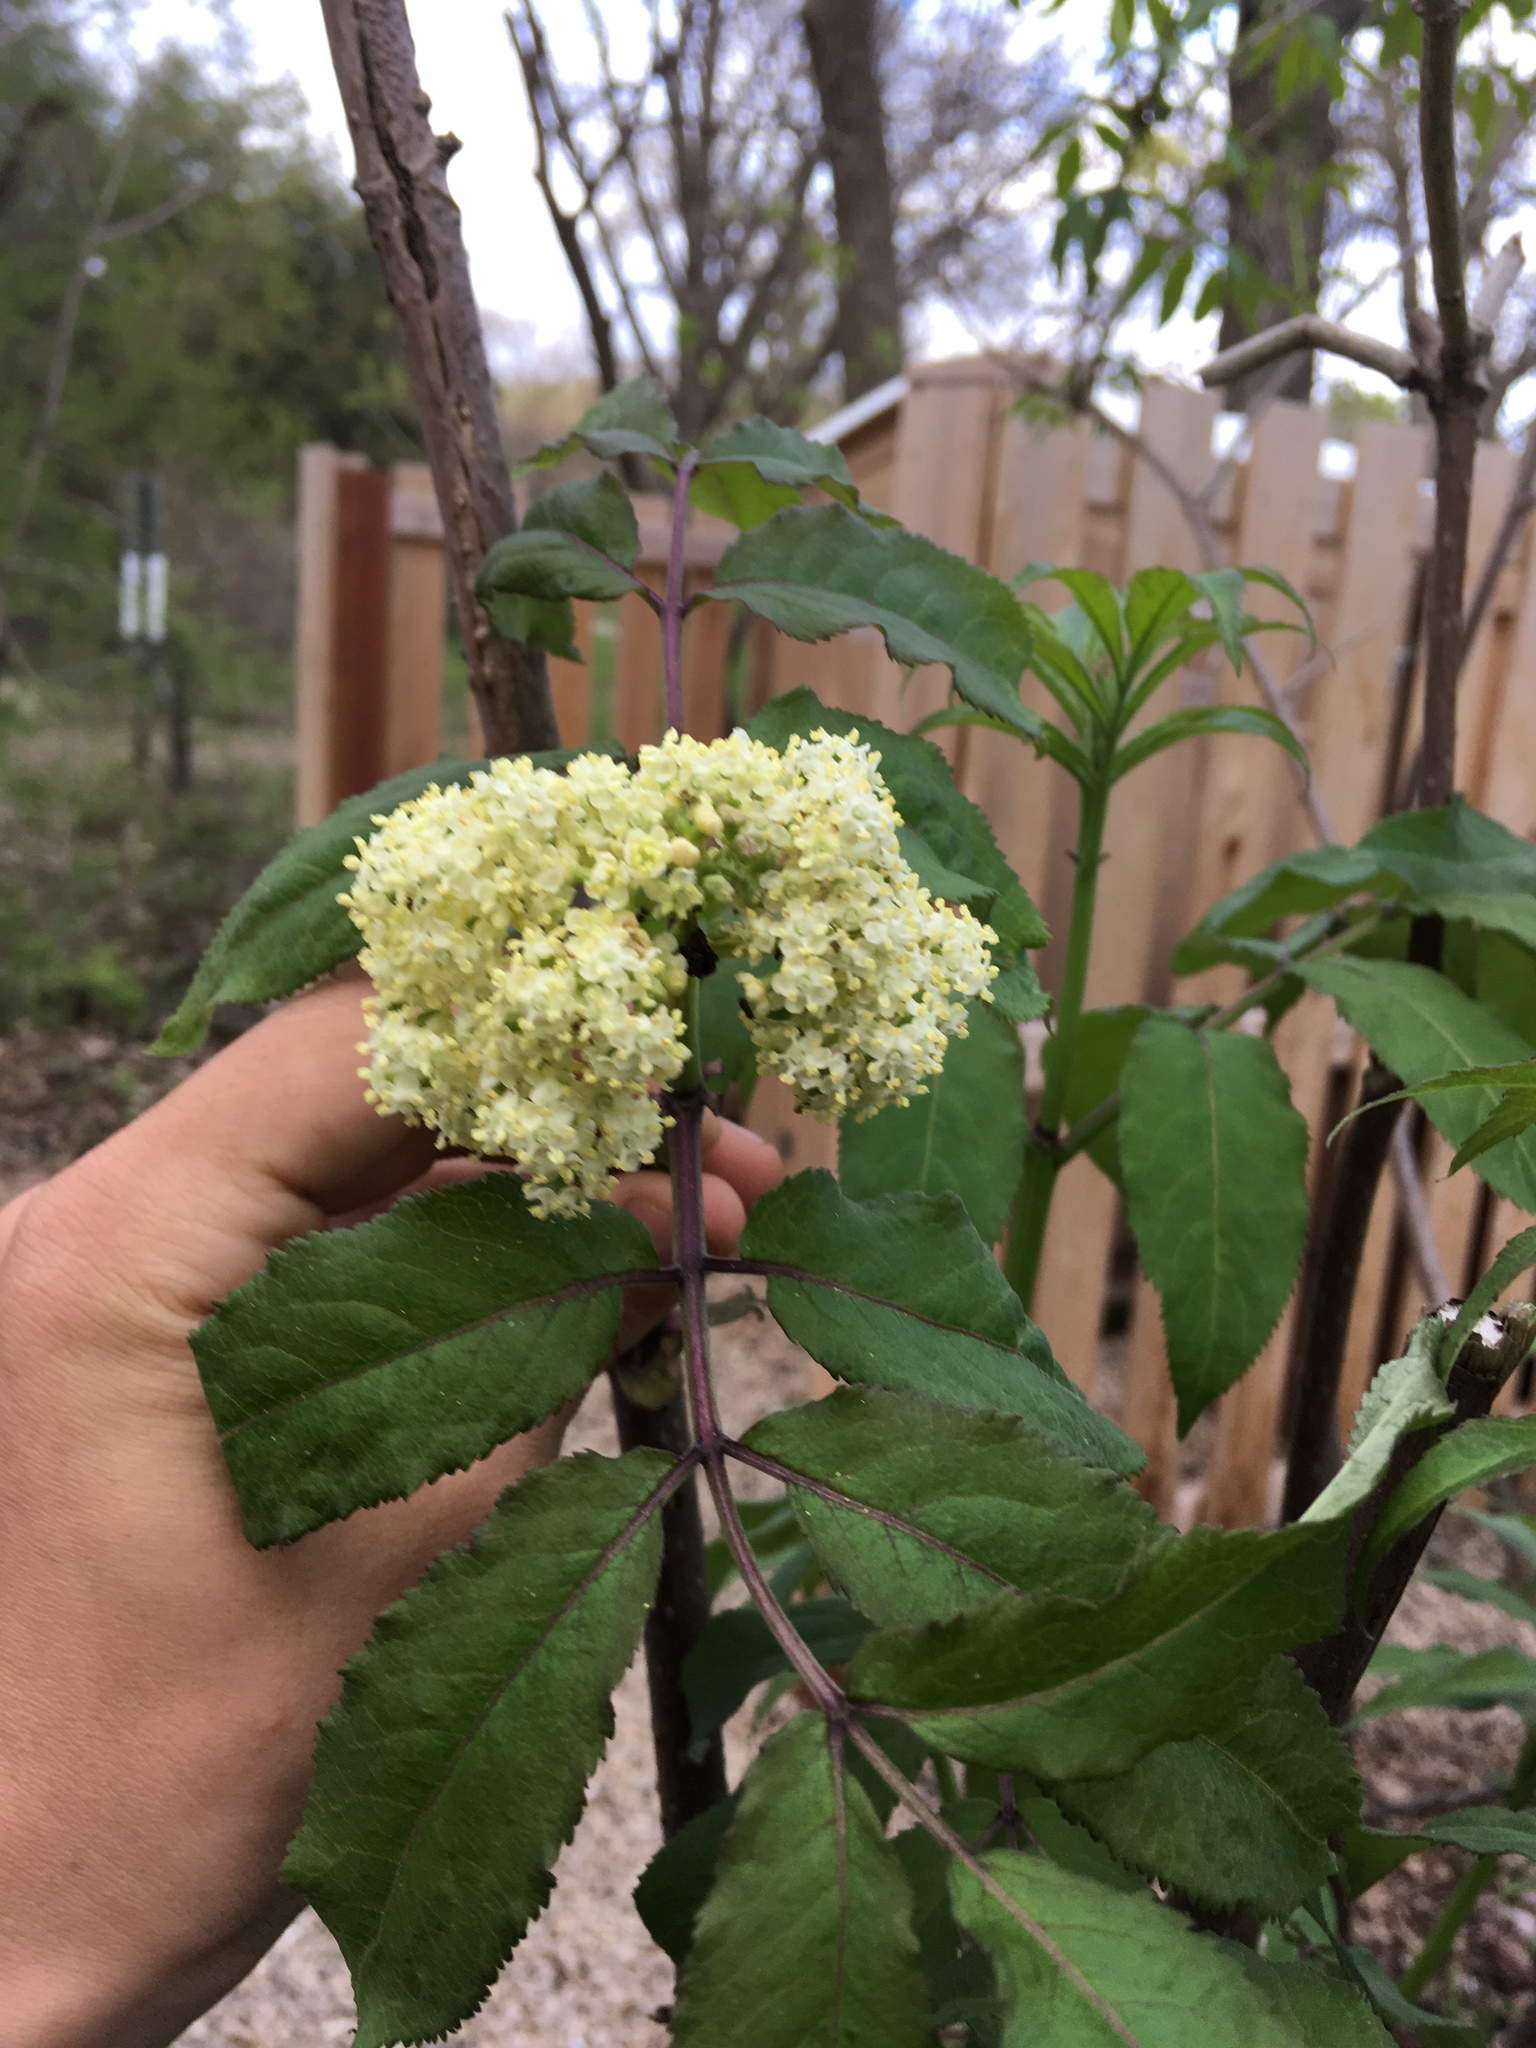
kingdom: Plantae
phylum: Tracheophyta
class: Magnoliopsida
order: Dipsacales
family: Viburnaceae
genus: Sambucus
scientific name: Sambucus racemosa
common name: Red-berried elder
